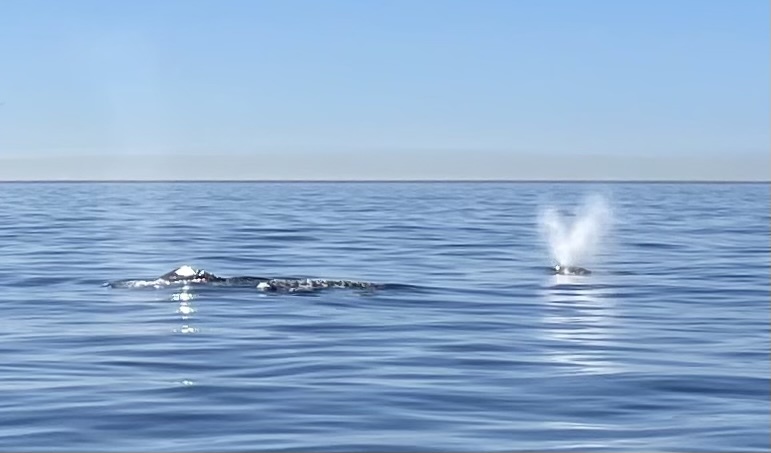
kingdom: Animalia
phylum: Chordata
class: Mammalia
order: Cetacea
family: Eschrichtiidae
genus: Eschrichtius
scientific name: Eschrichtius robustus
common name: Gray whale
